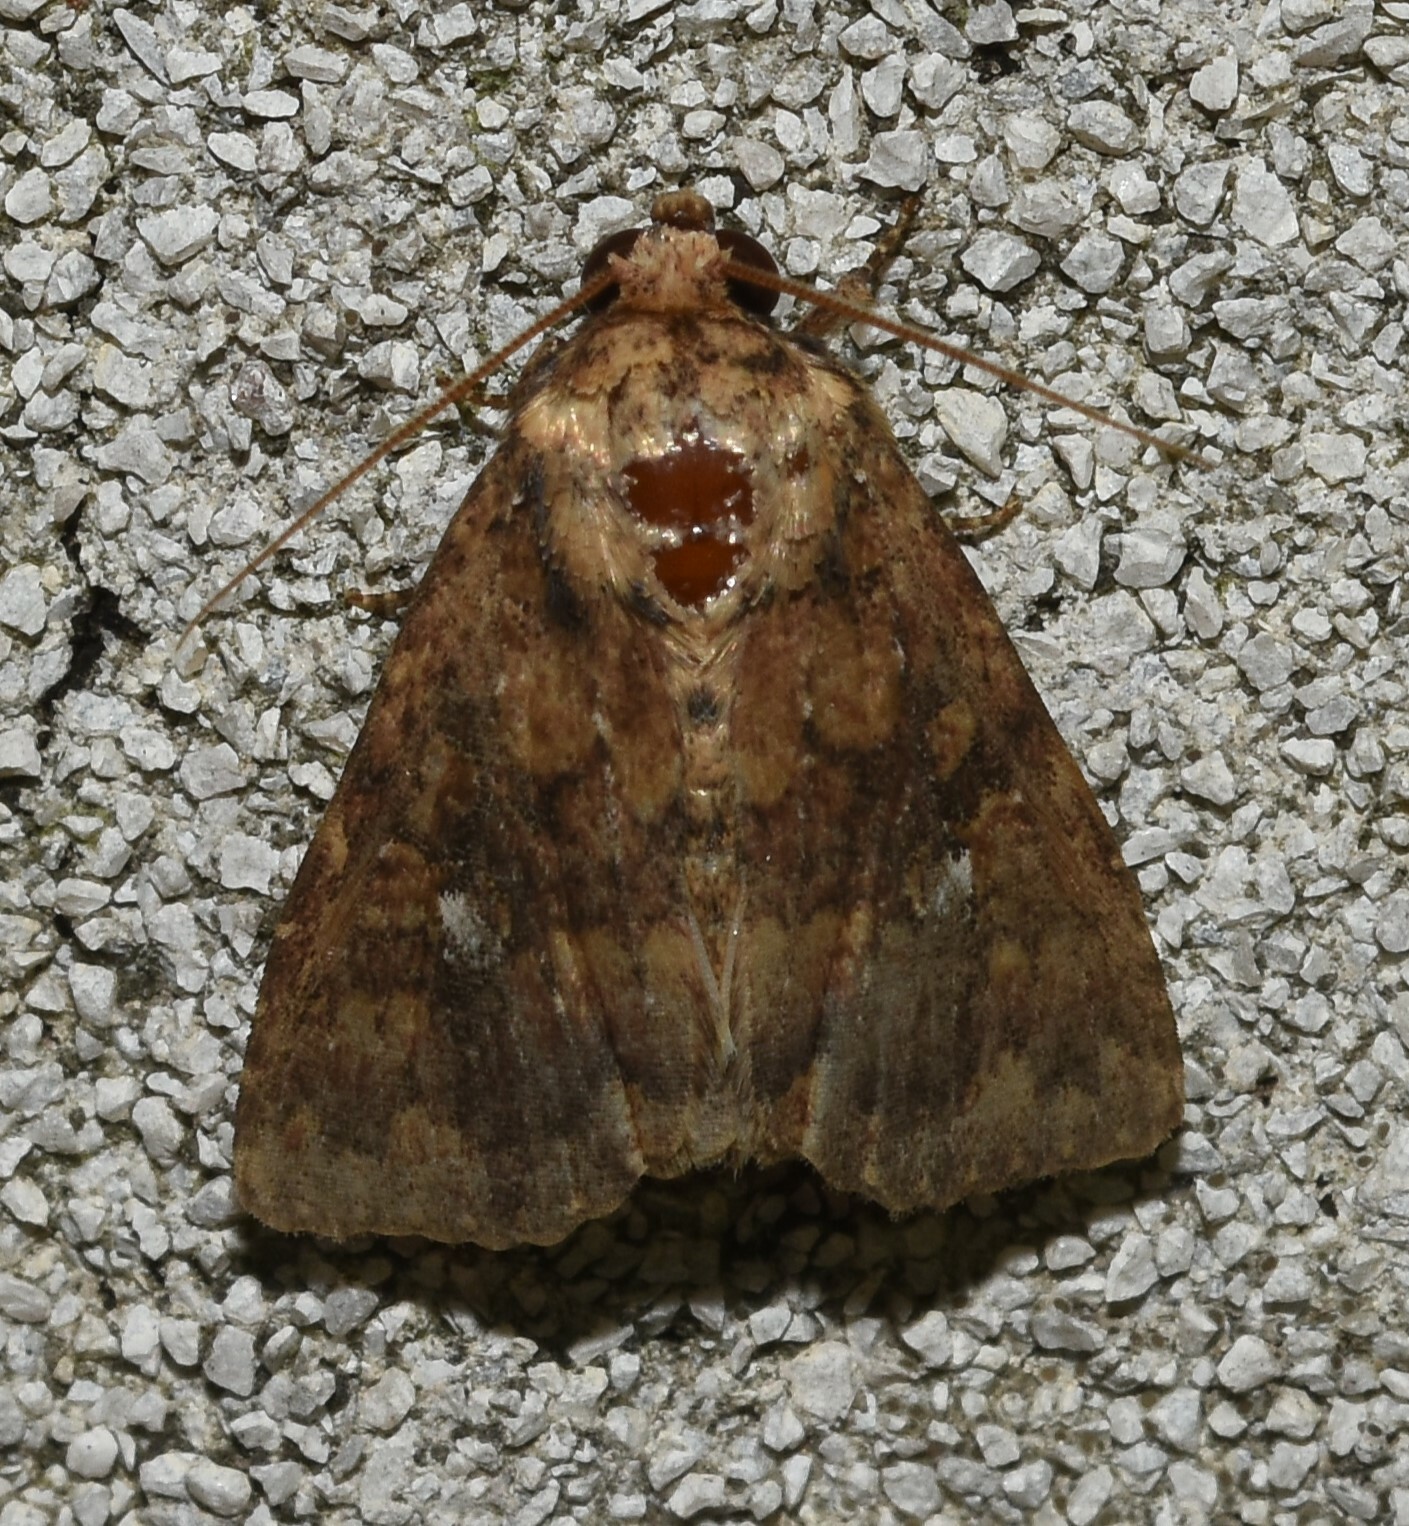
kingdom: Animalia
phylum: Arthropoda
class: Insecta
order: Lepidoptera
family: Noctuidae
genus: Perigea
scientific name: Perigea xanthioides
